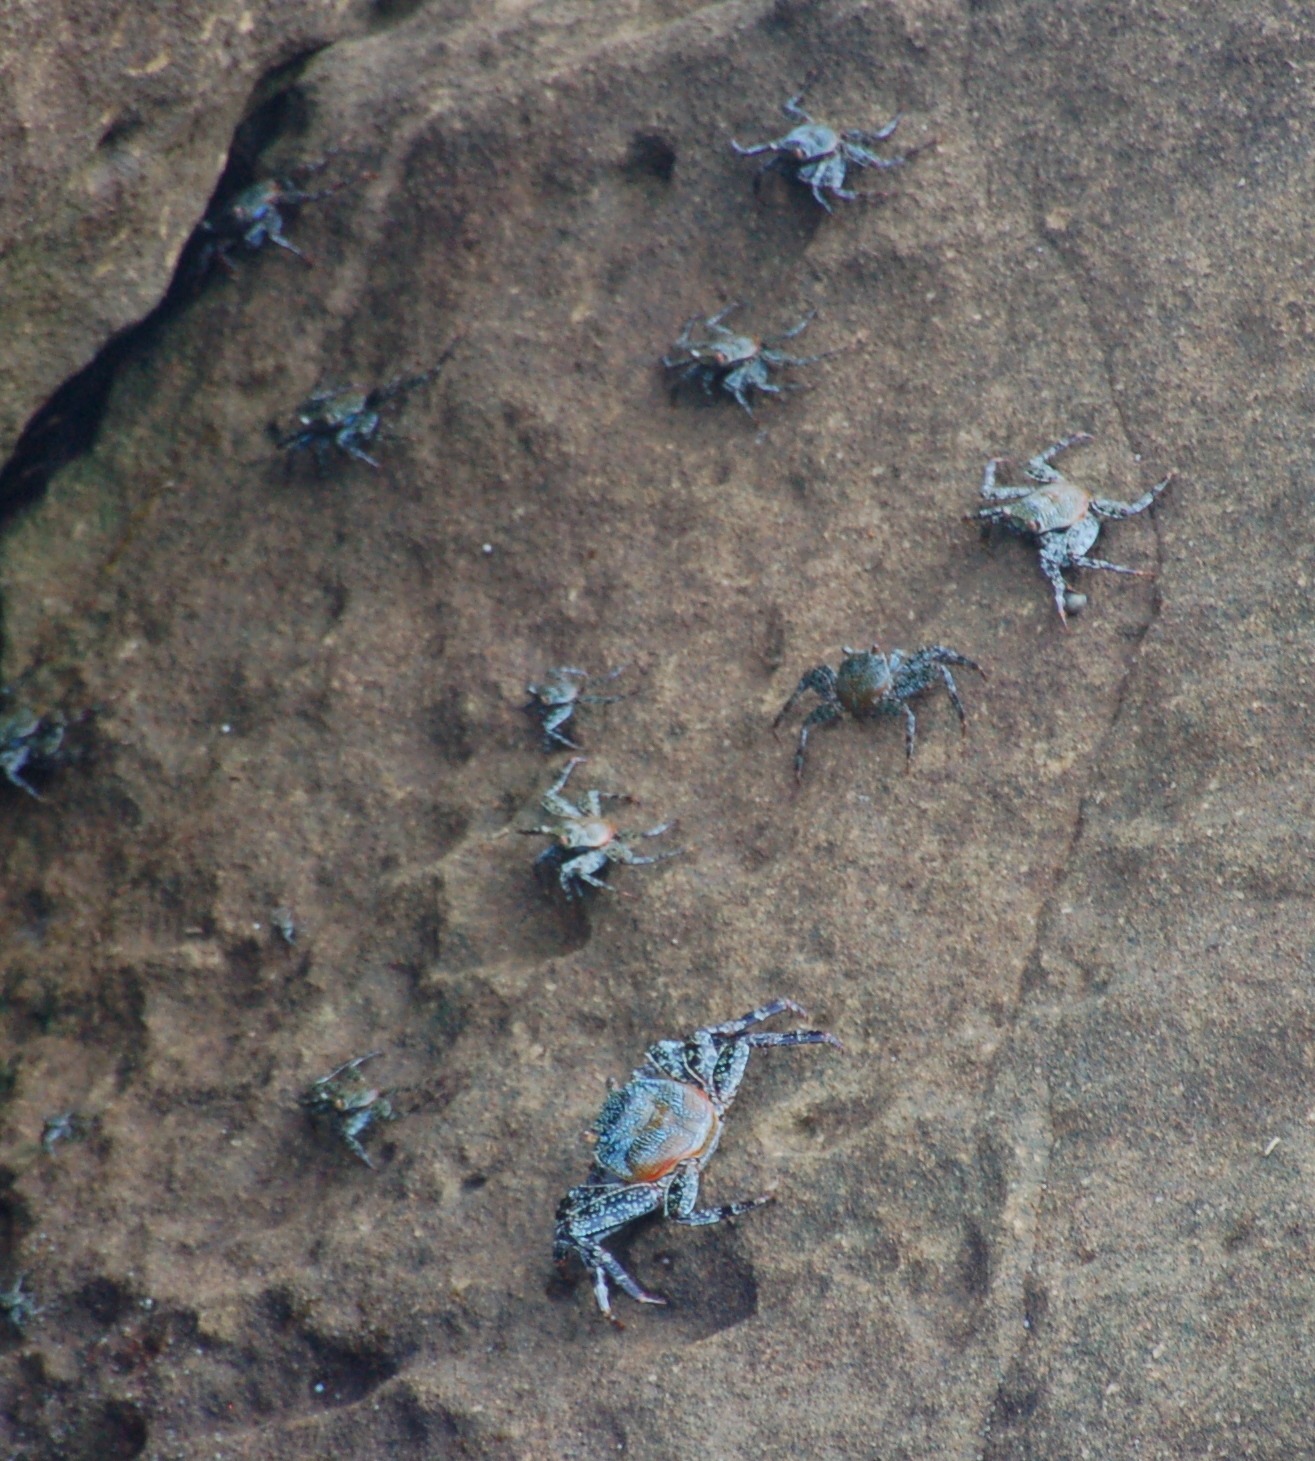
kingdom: Animalia
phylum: Arthropoda
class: Malacostraca
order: Decapoda
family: Grapsidae
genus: Grapsus
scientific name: Grapsus grapsus
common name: Sally lightfoot
